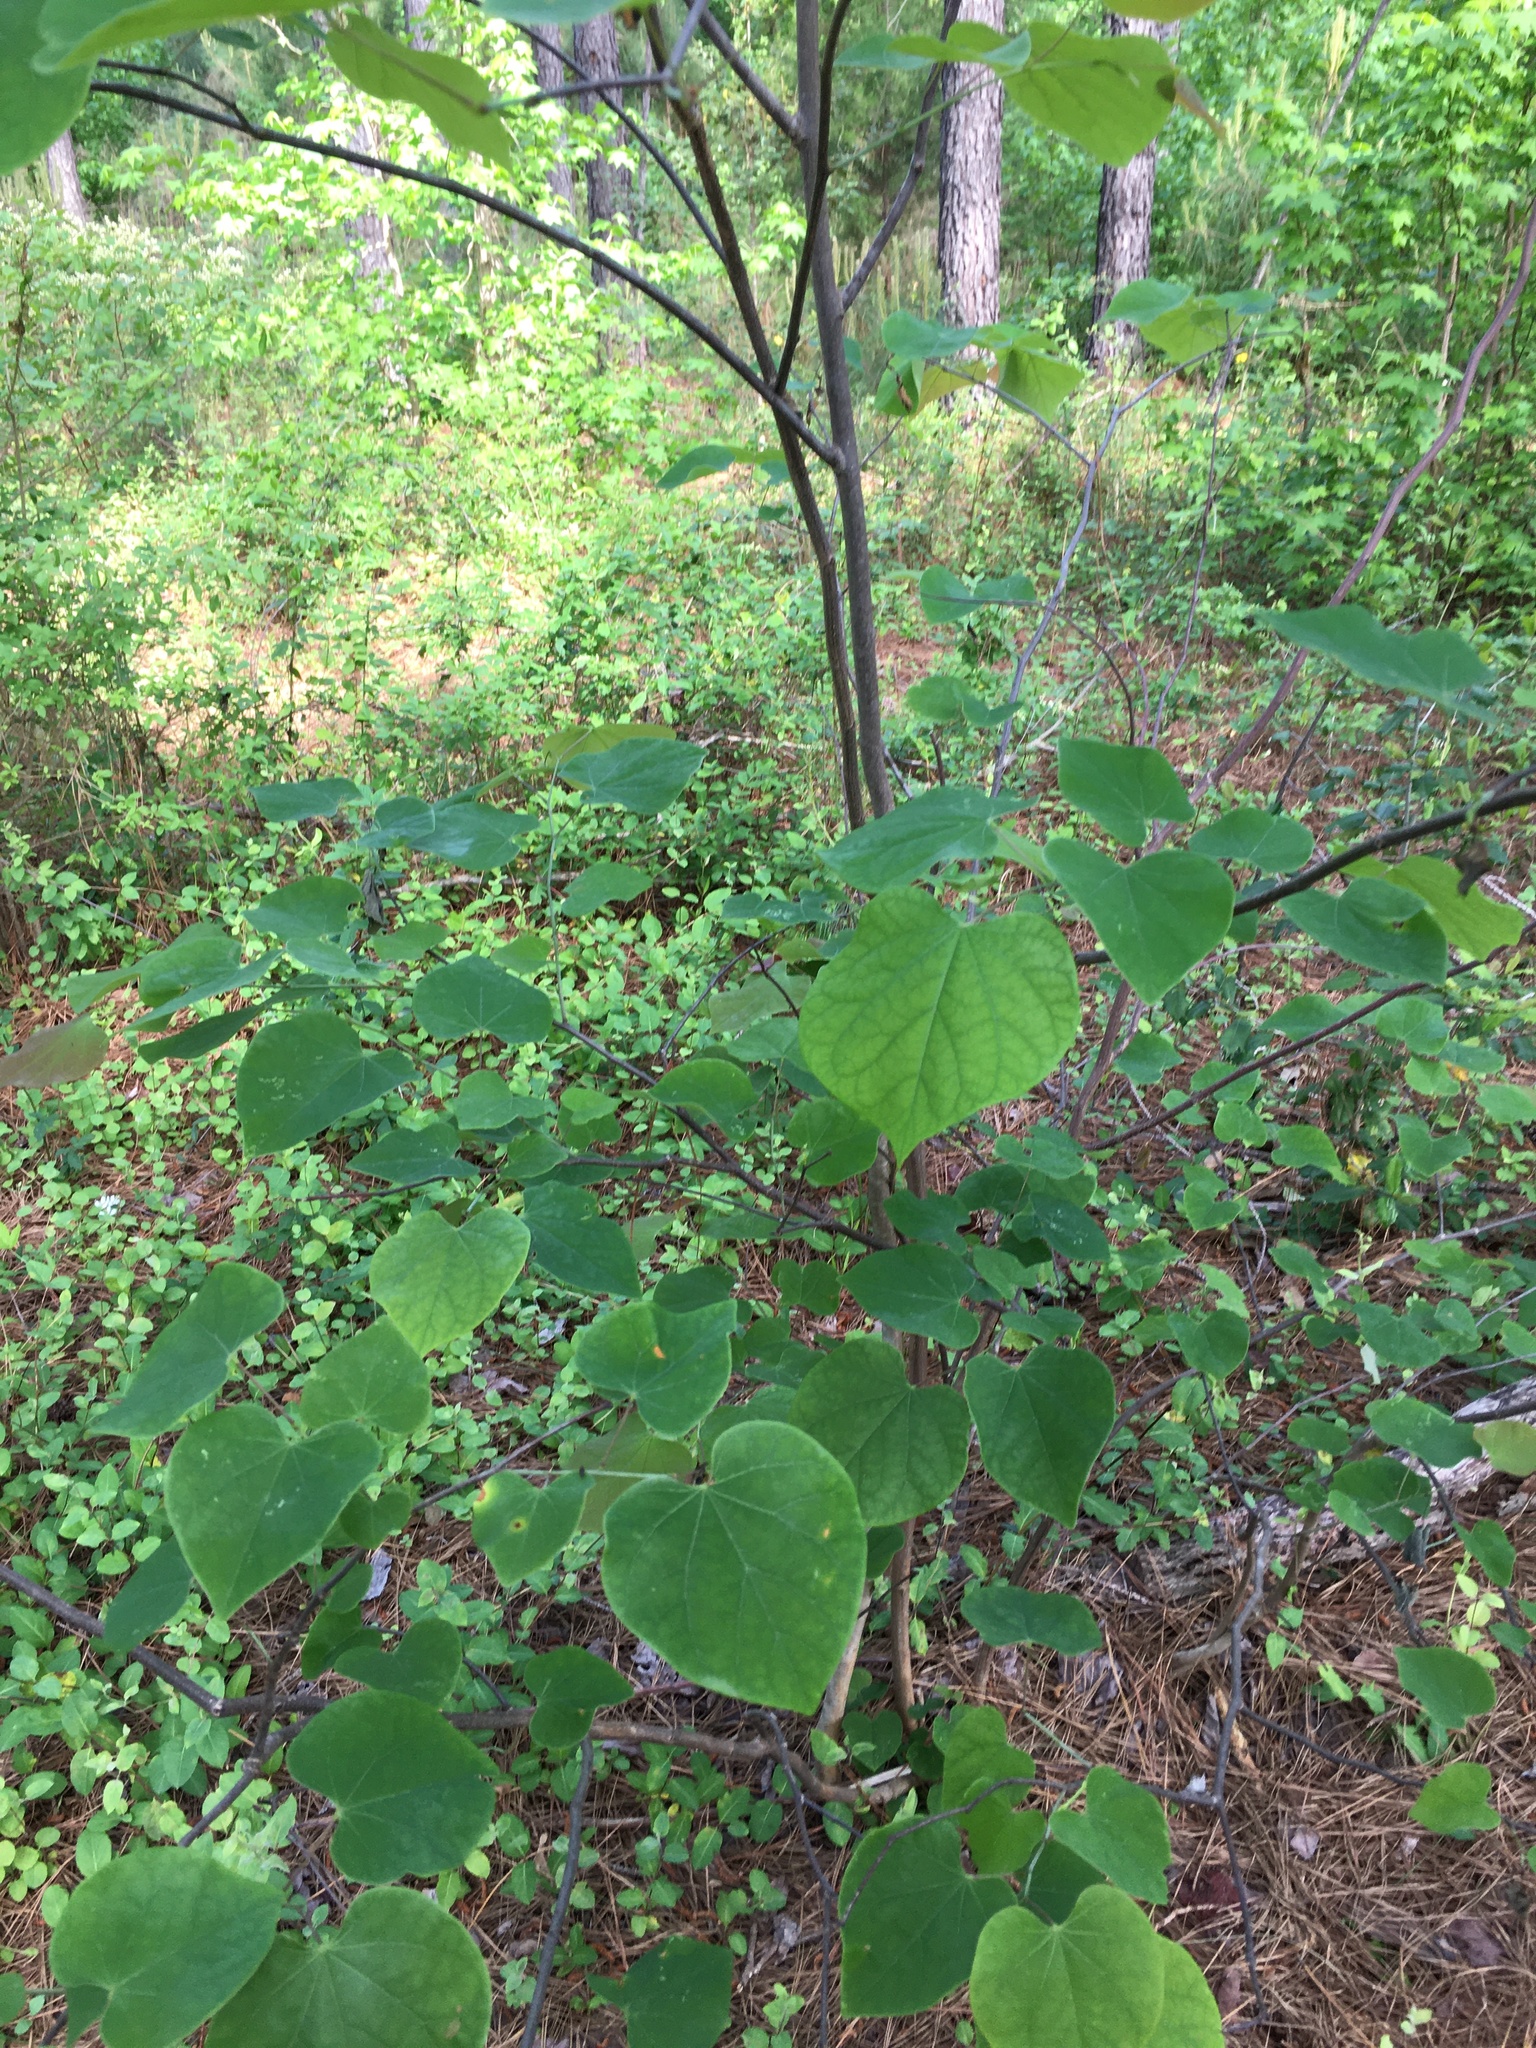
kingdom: Plantae
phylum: Tracheophyta
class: Magnoliopsida
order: Fabales
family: Fabaceae
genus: Cercis
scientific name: Cercis canadensis
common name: Eastern redbud
